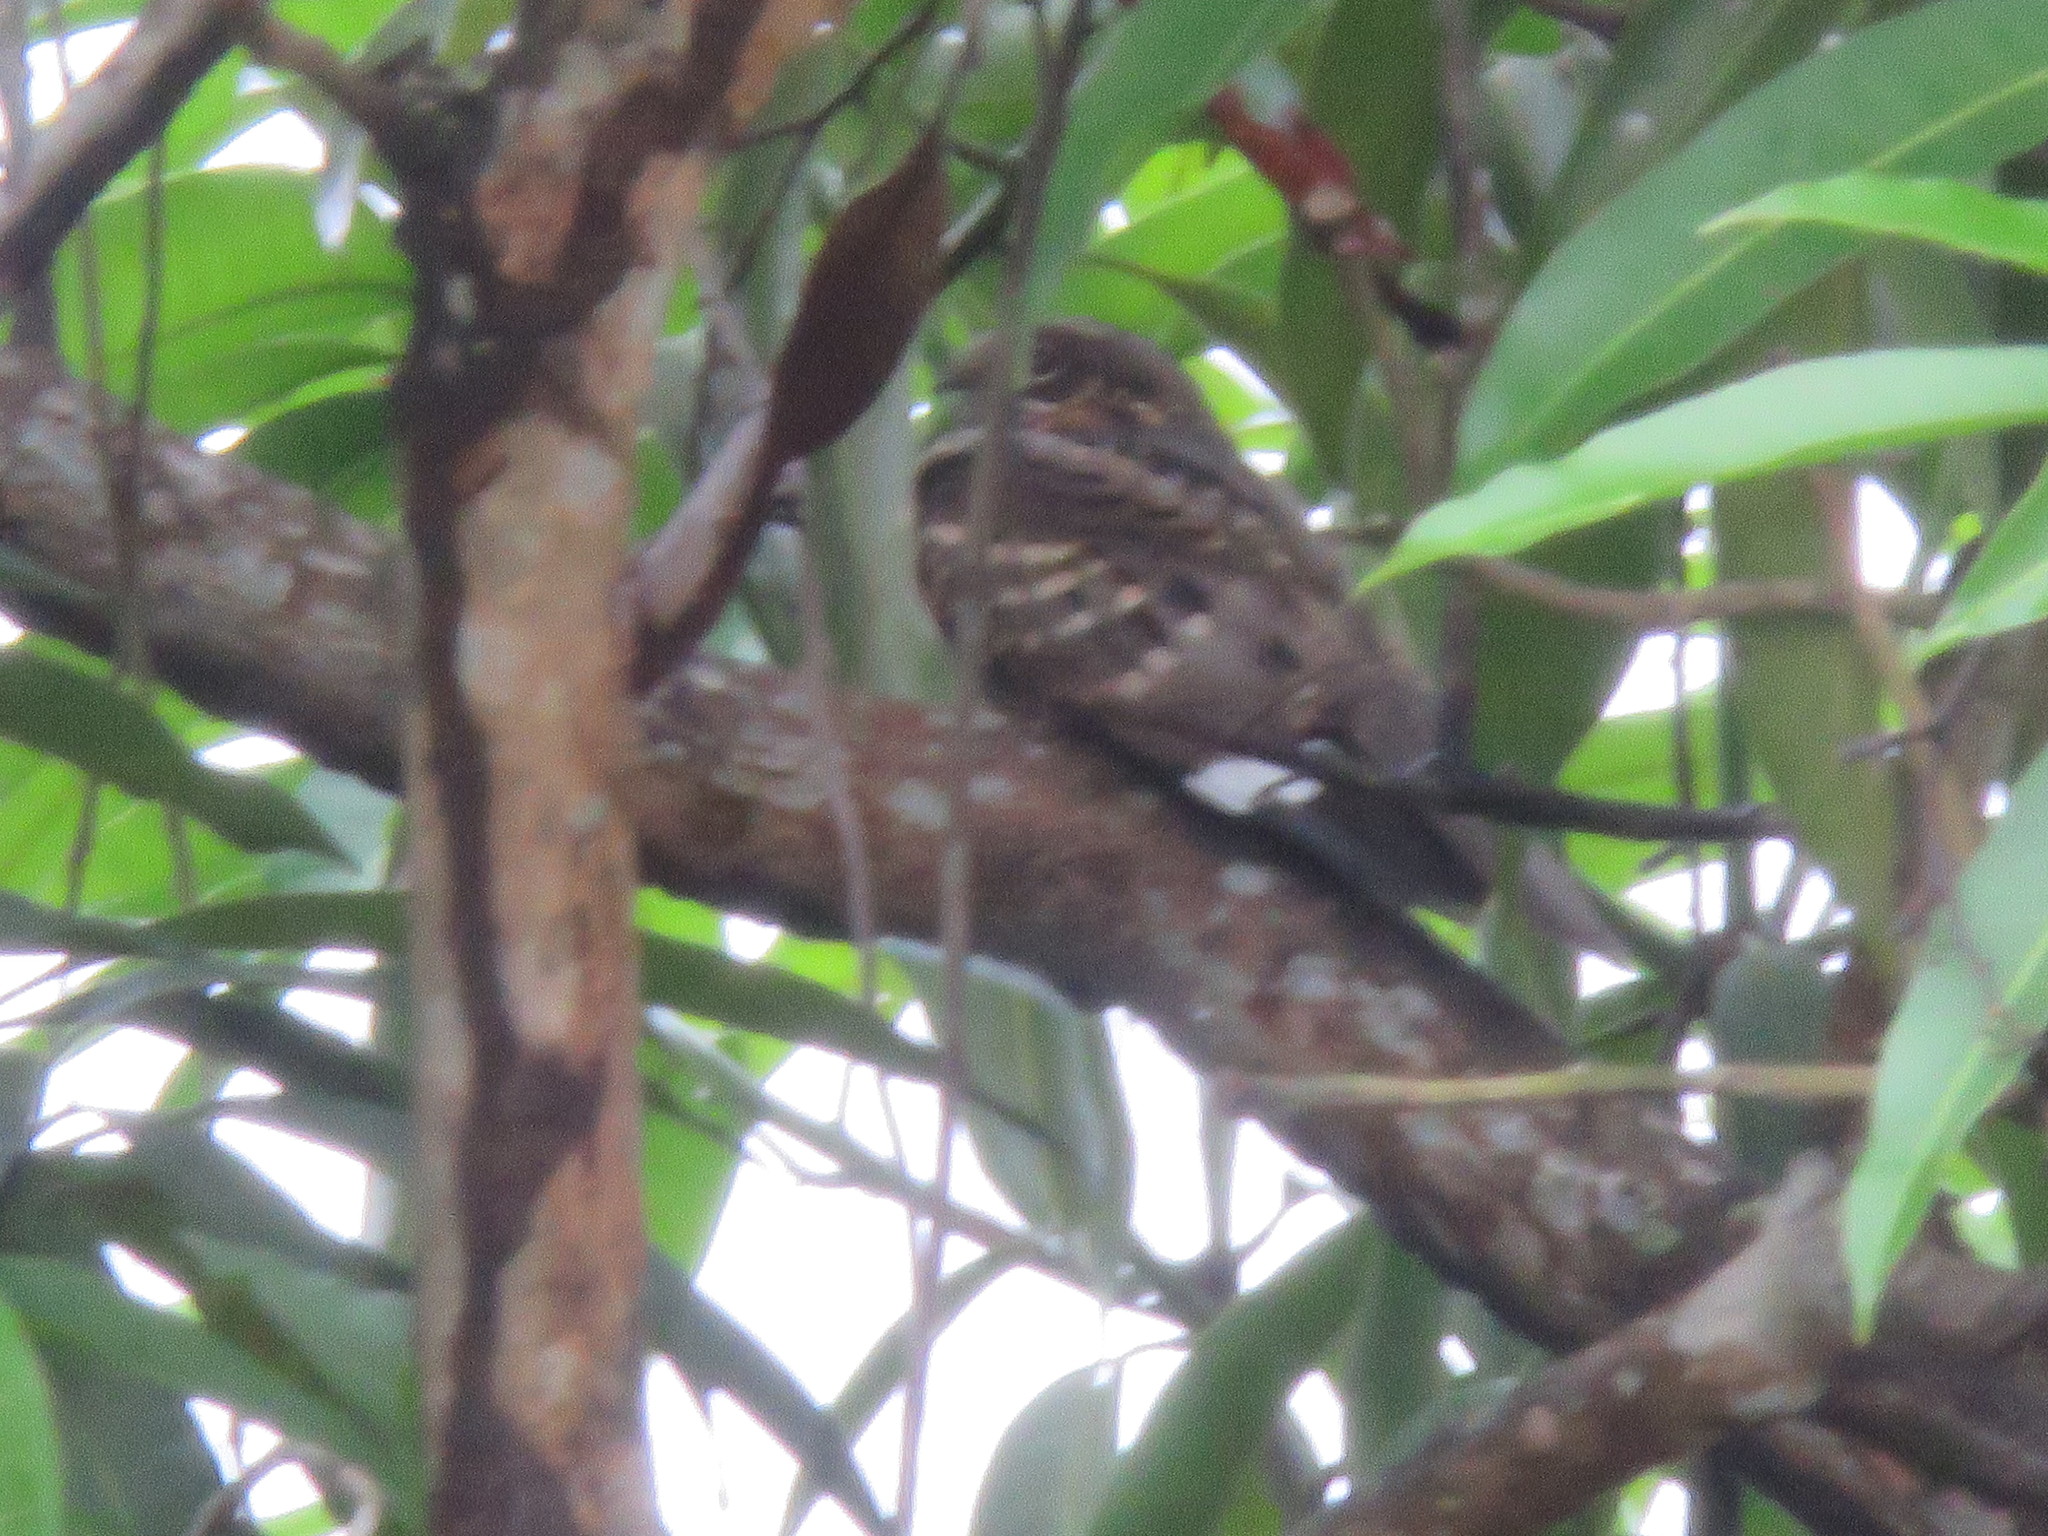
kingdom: Animalia
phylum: Chordata
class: Aves
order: Caprimulgiformes
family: Caprimulgidae
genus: Nyctidromus
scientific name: Nyctidromus albicollis
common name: Pauraque
